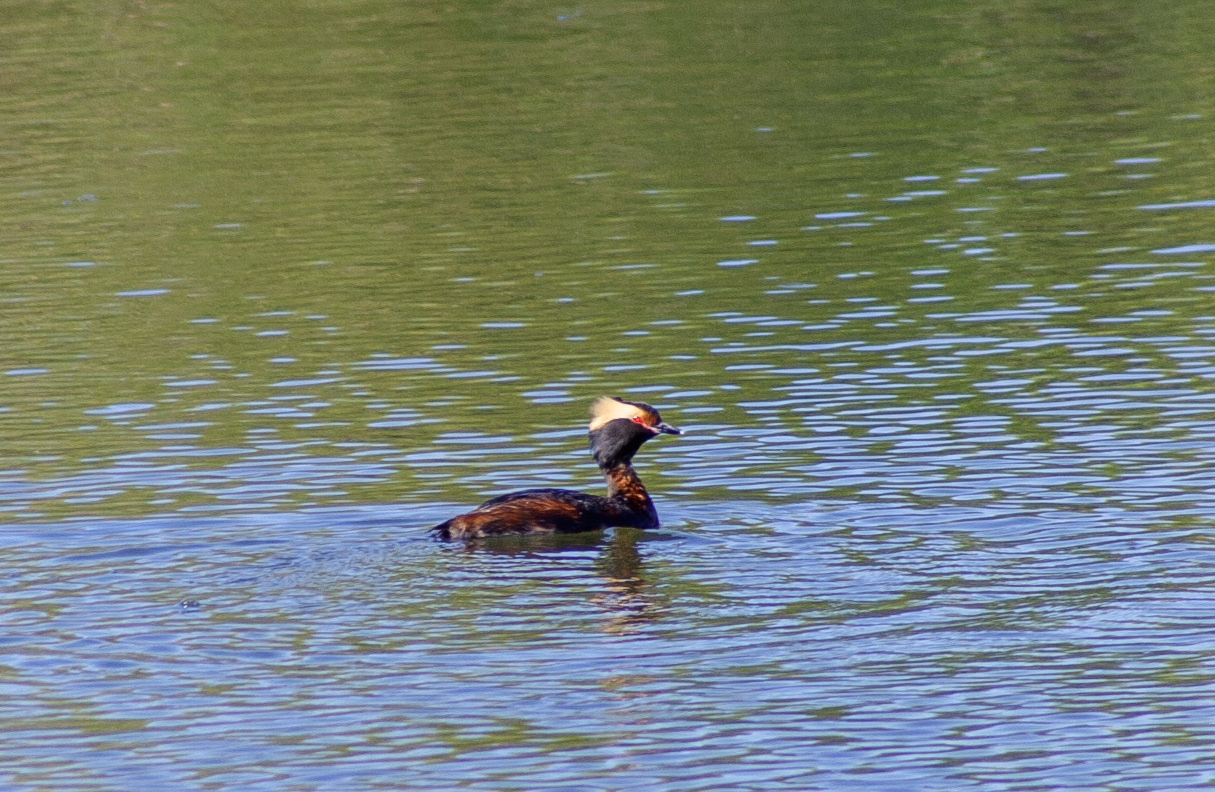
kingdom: Animalia
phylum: Chordata
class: Aves
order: Podicipediformes
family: Podicipedidae
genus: Podiceps
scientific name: Podiceps auritus
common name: Horned grebe
